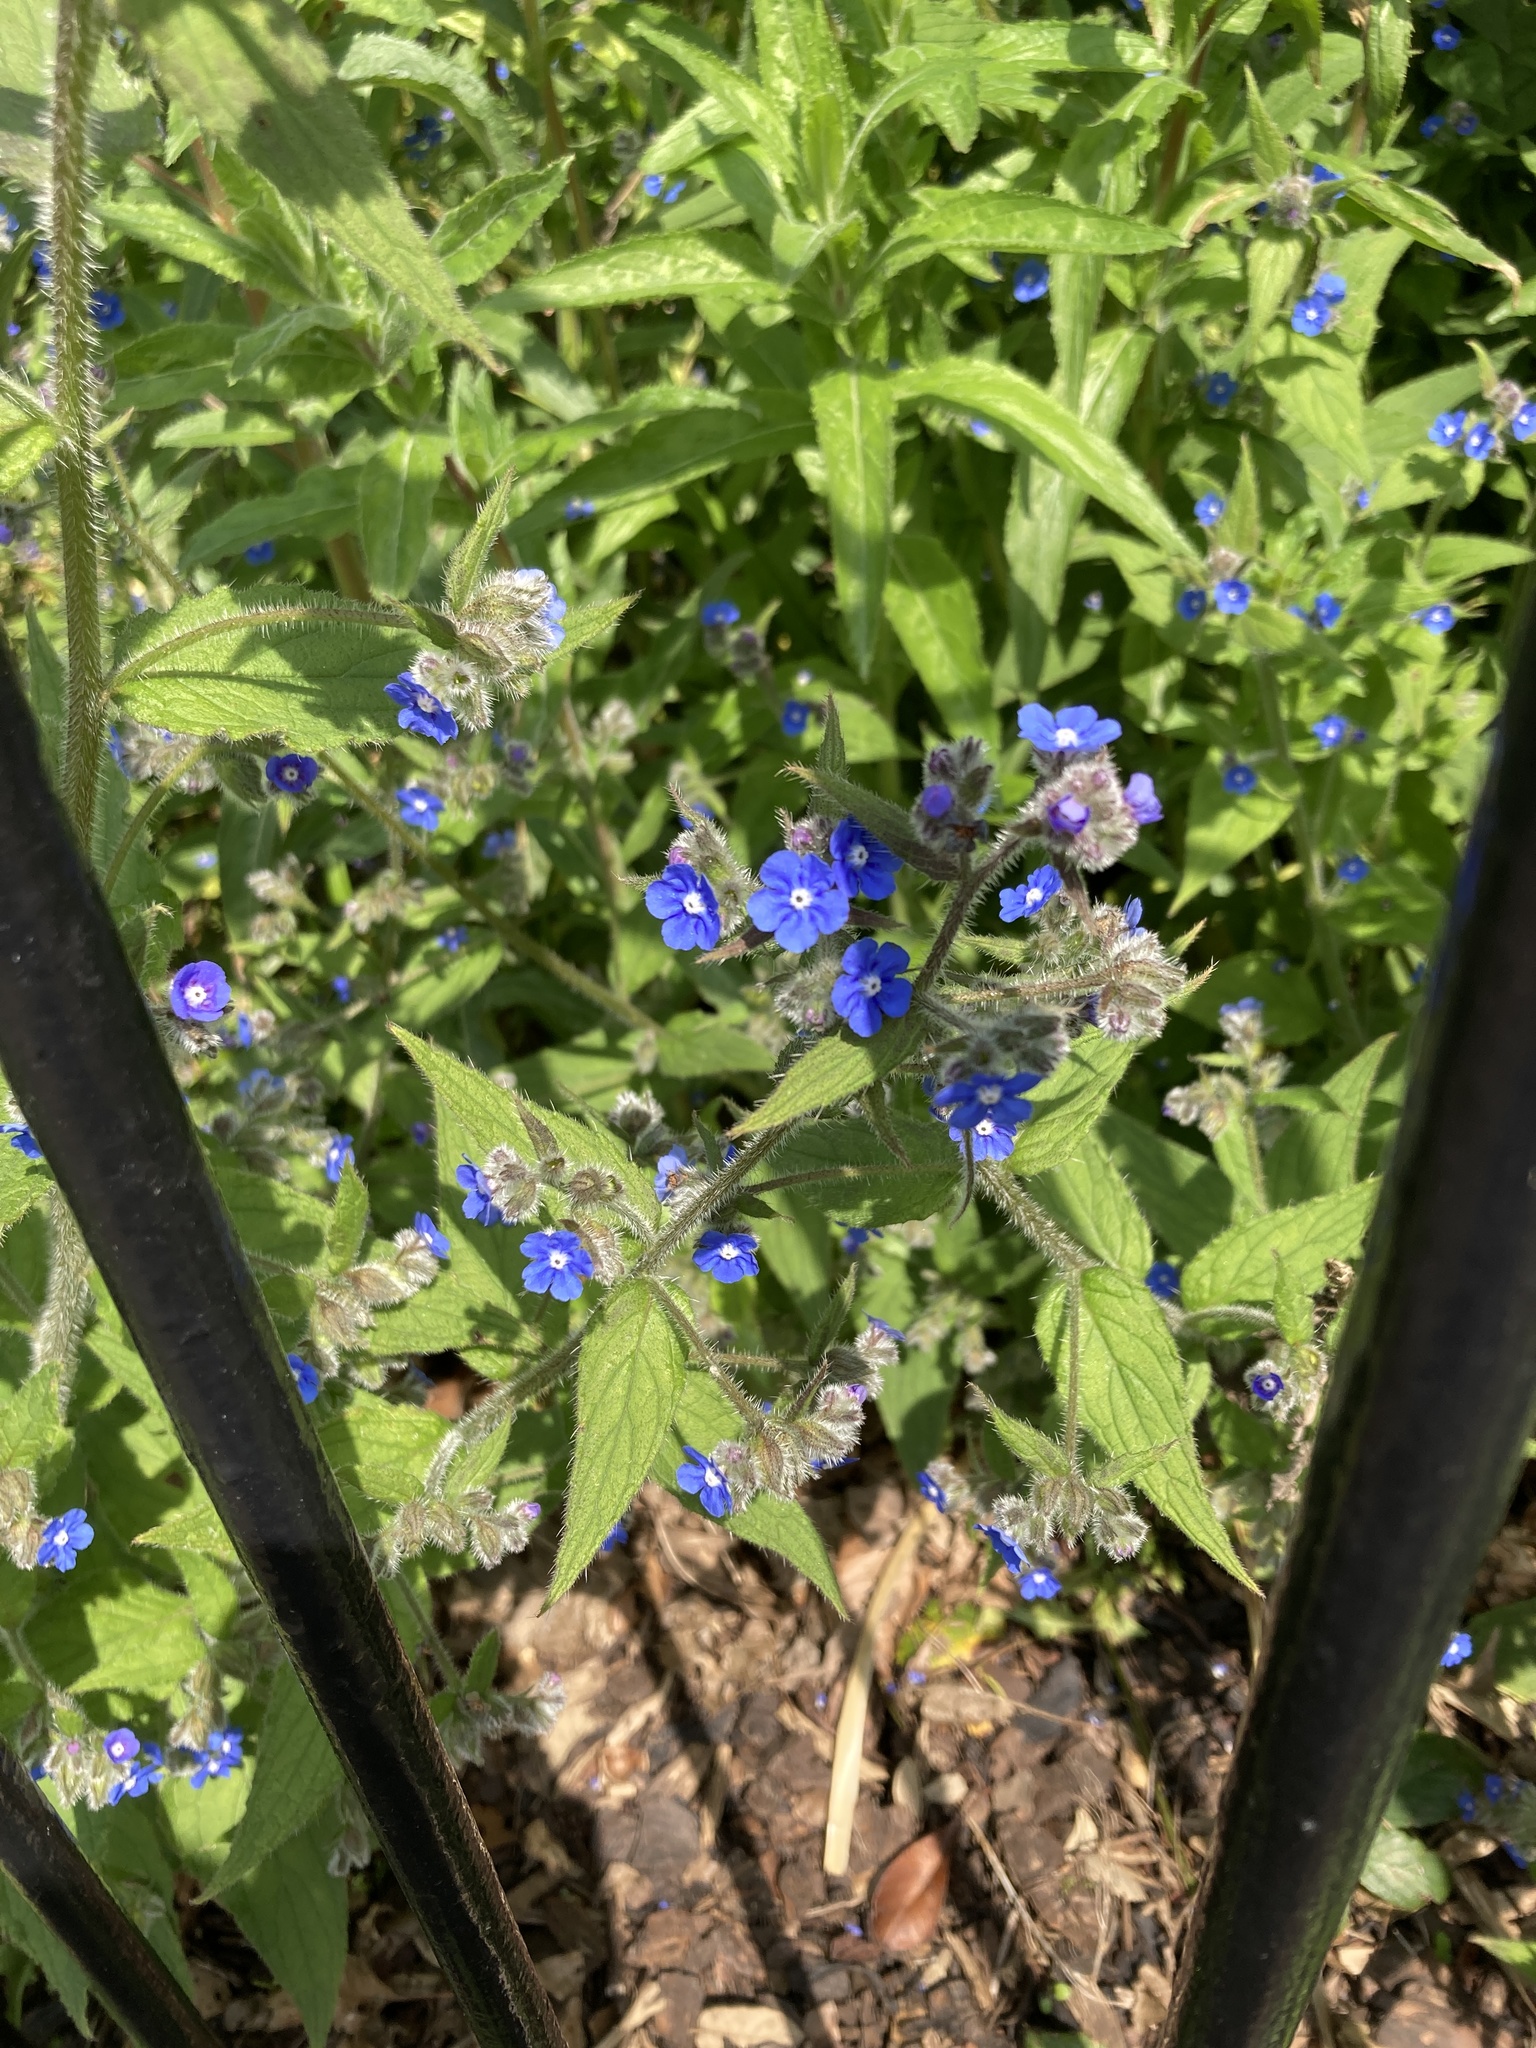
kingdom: Plantae
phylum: Tracheophyta
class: Magnoliopsida
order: Boraginales
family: Boraginaceae
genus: Pentaglottis
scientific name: Pentaglottis sempervirens
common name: Green alkanet
